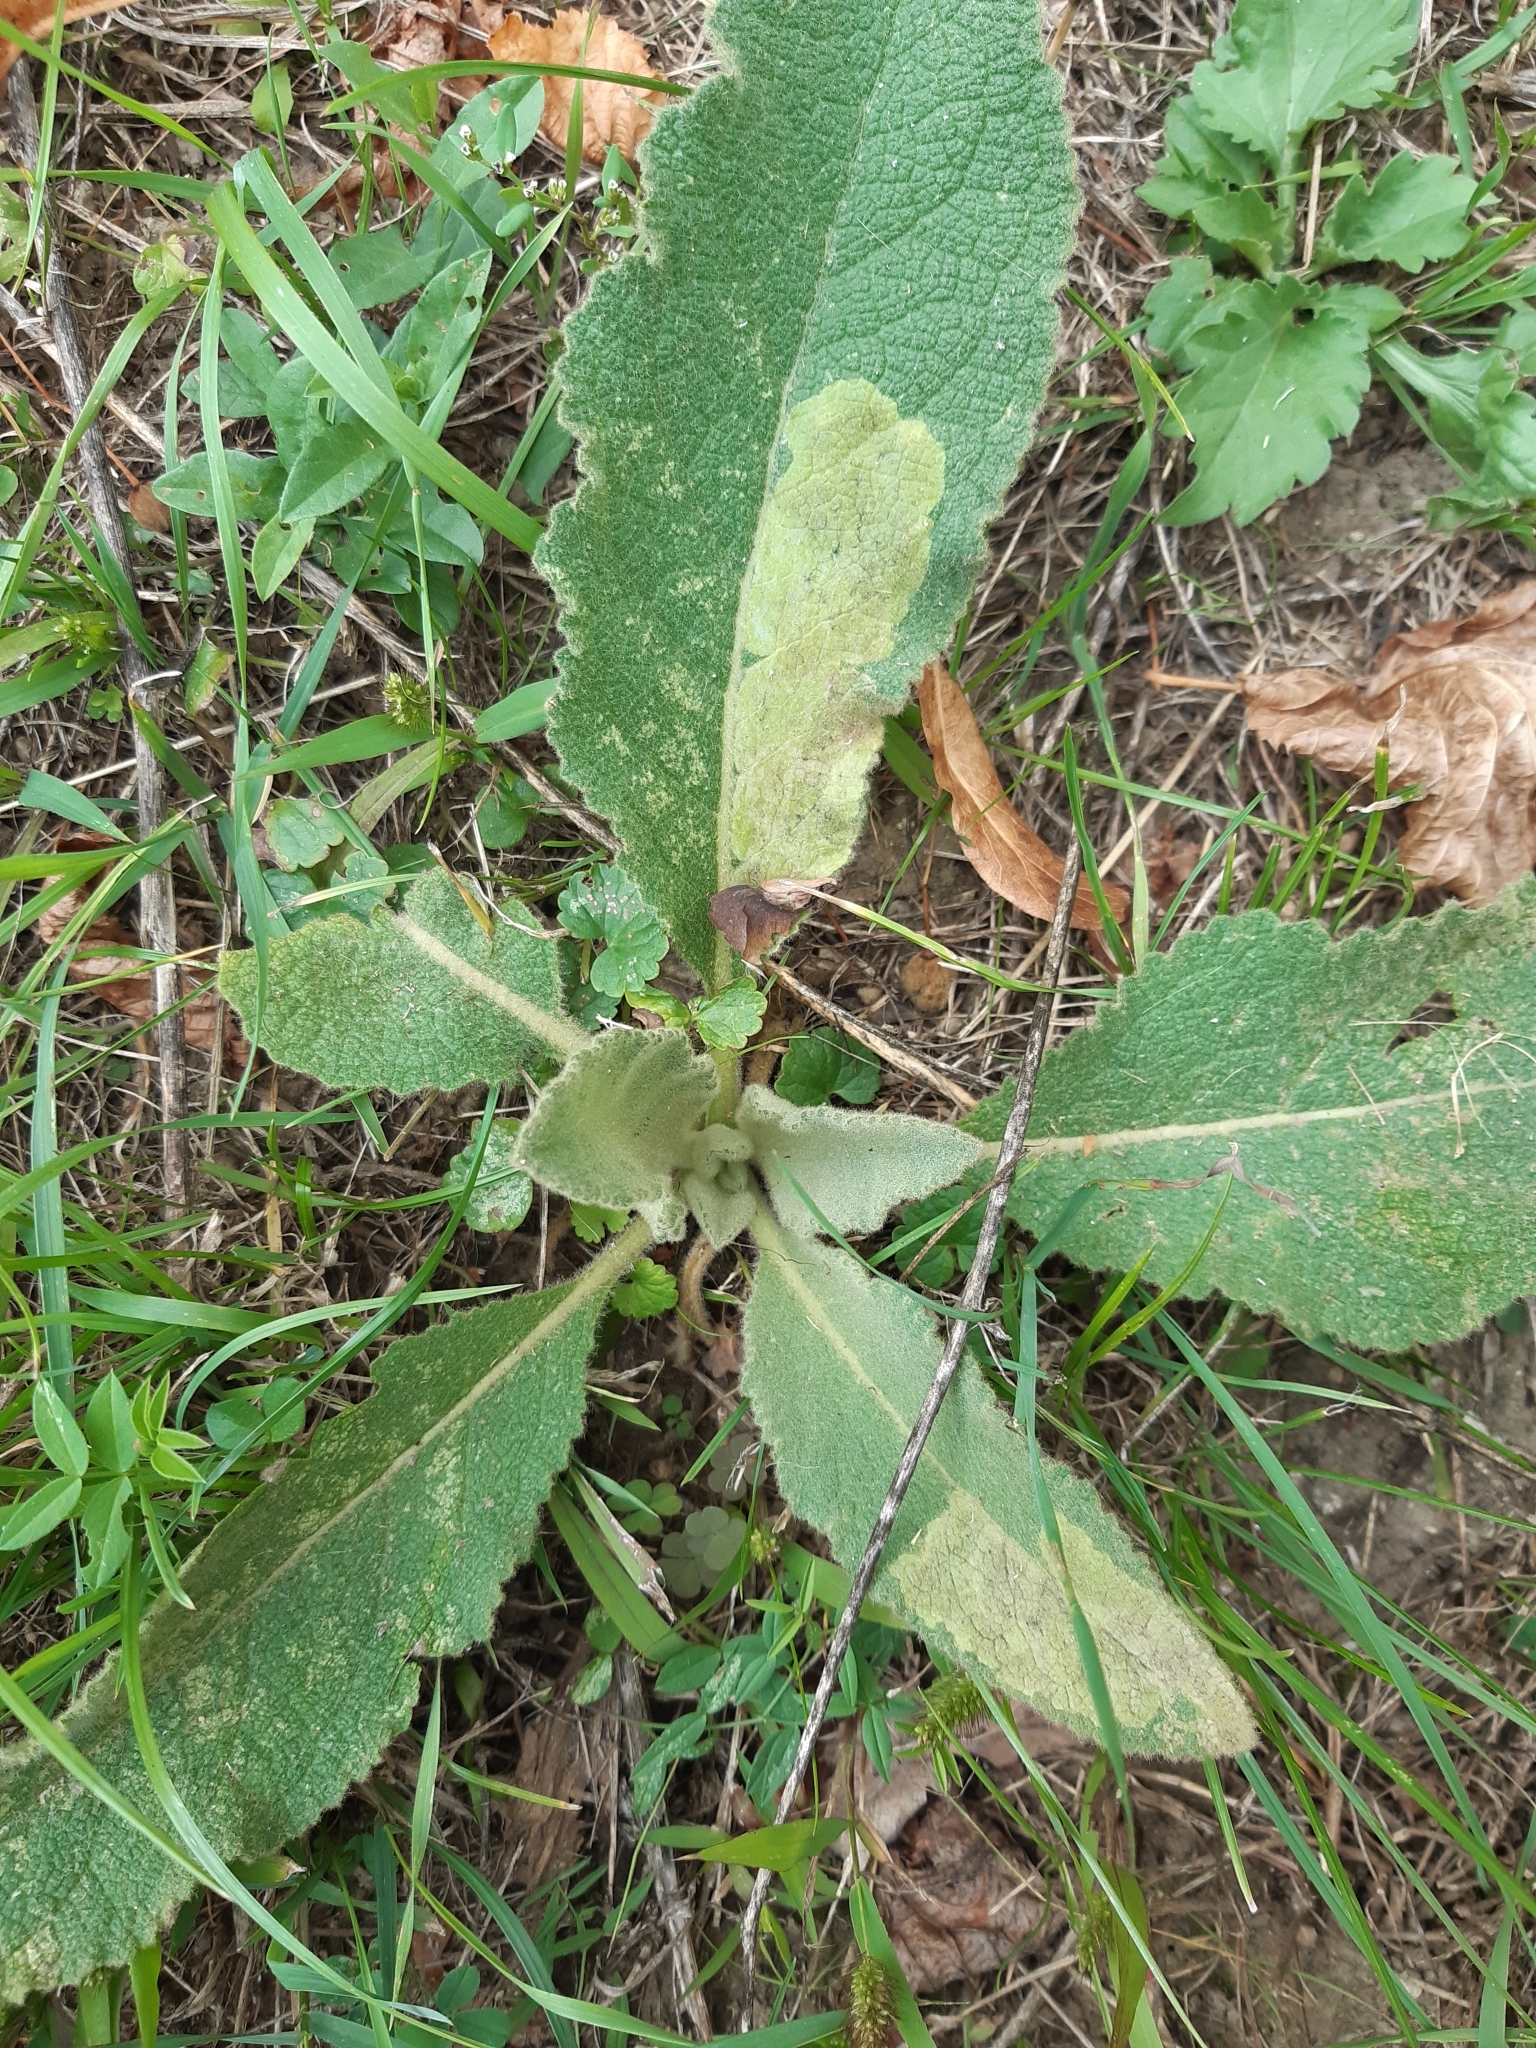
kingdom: Animalia
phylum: Arthropoda
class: Insecta
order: Diptera
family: Agromyzidae
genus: Amauromyza
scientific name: Amauromyza verbasci
